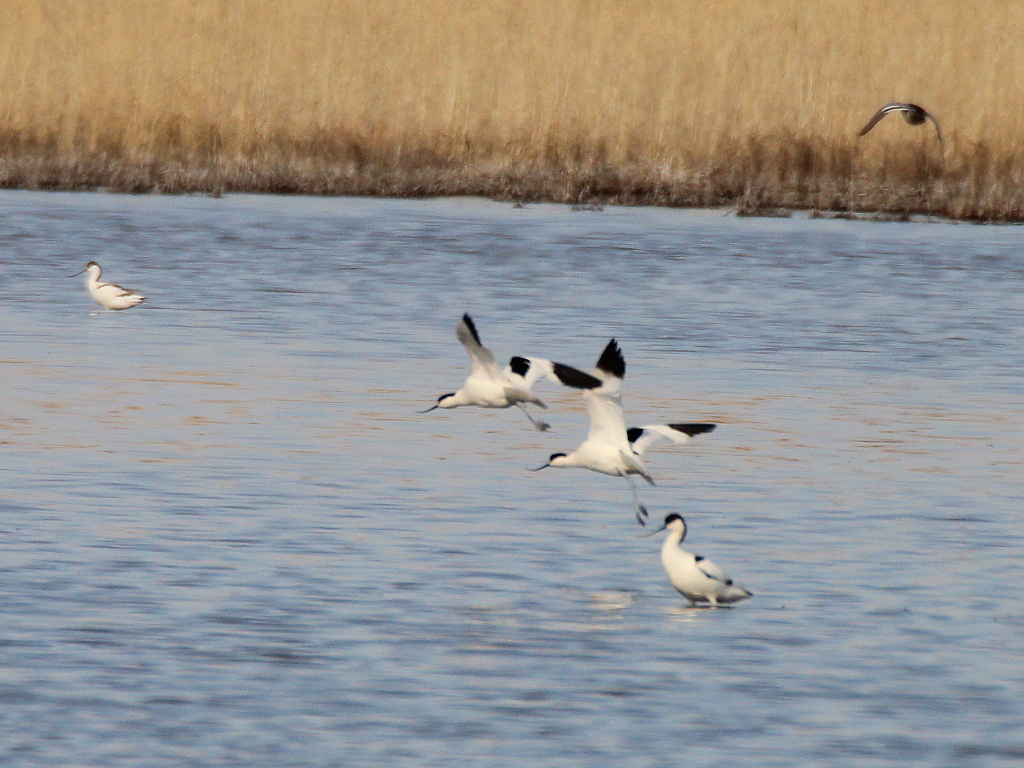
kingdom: Animalia
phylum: Chordata
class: Aves
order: Charadriiformes
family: Recurvirostridae
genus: Recurvirostra
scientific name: Recurvirostra avosetta
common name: Pied avocet
